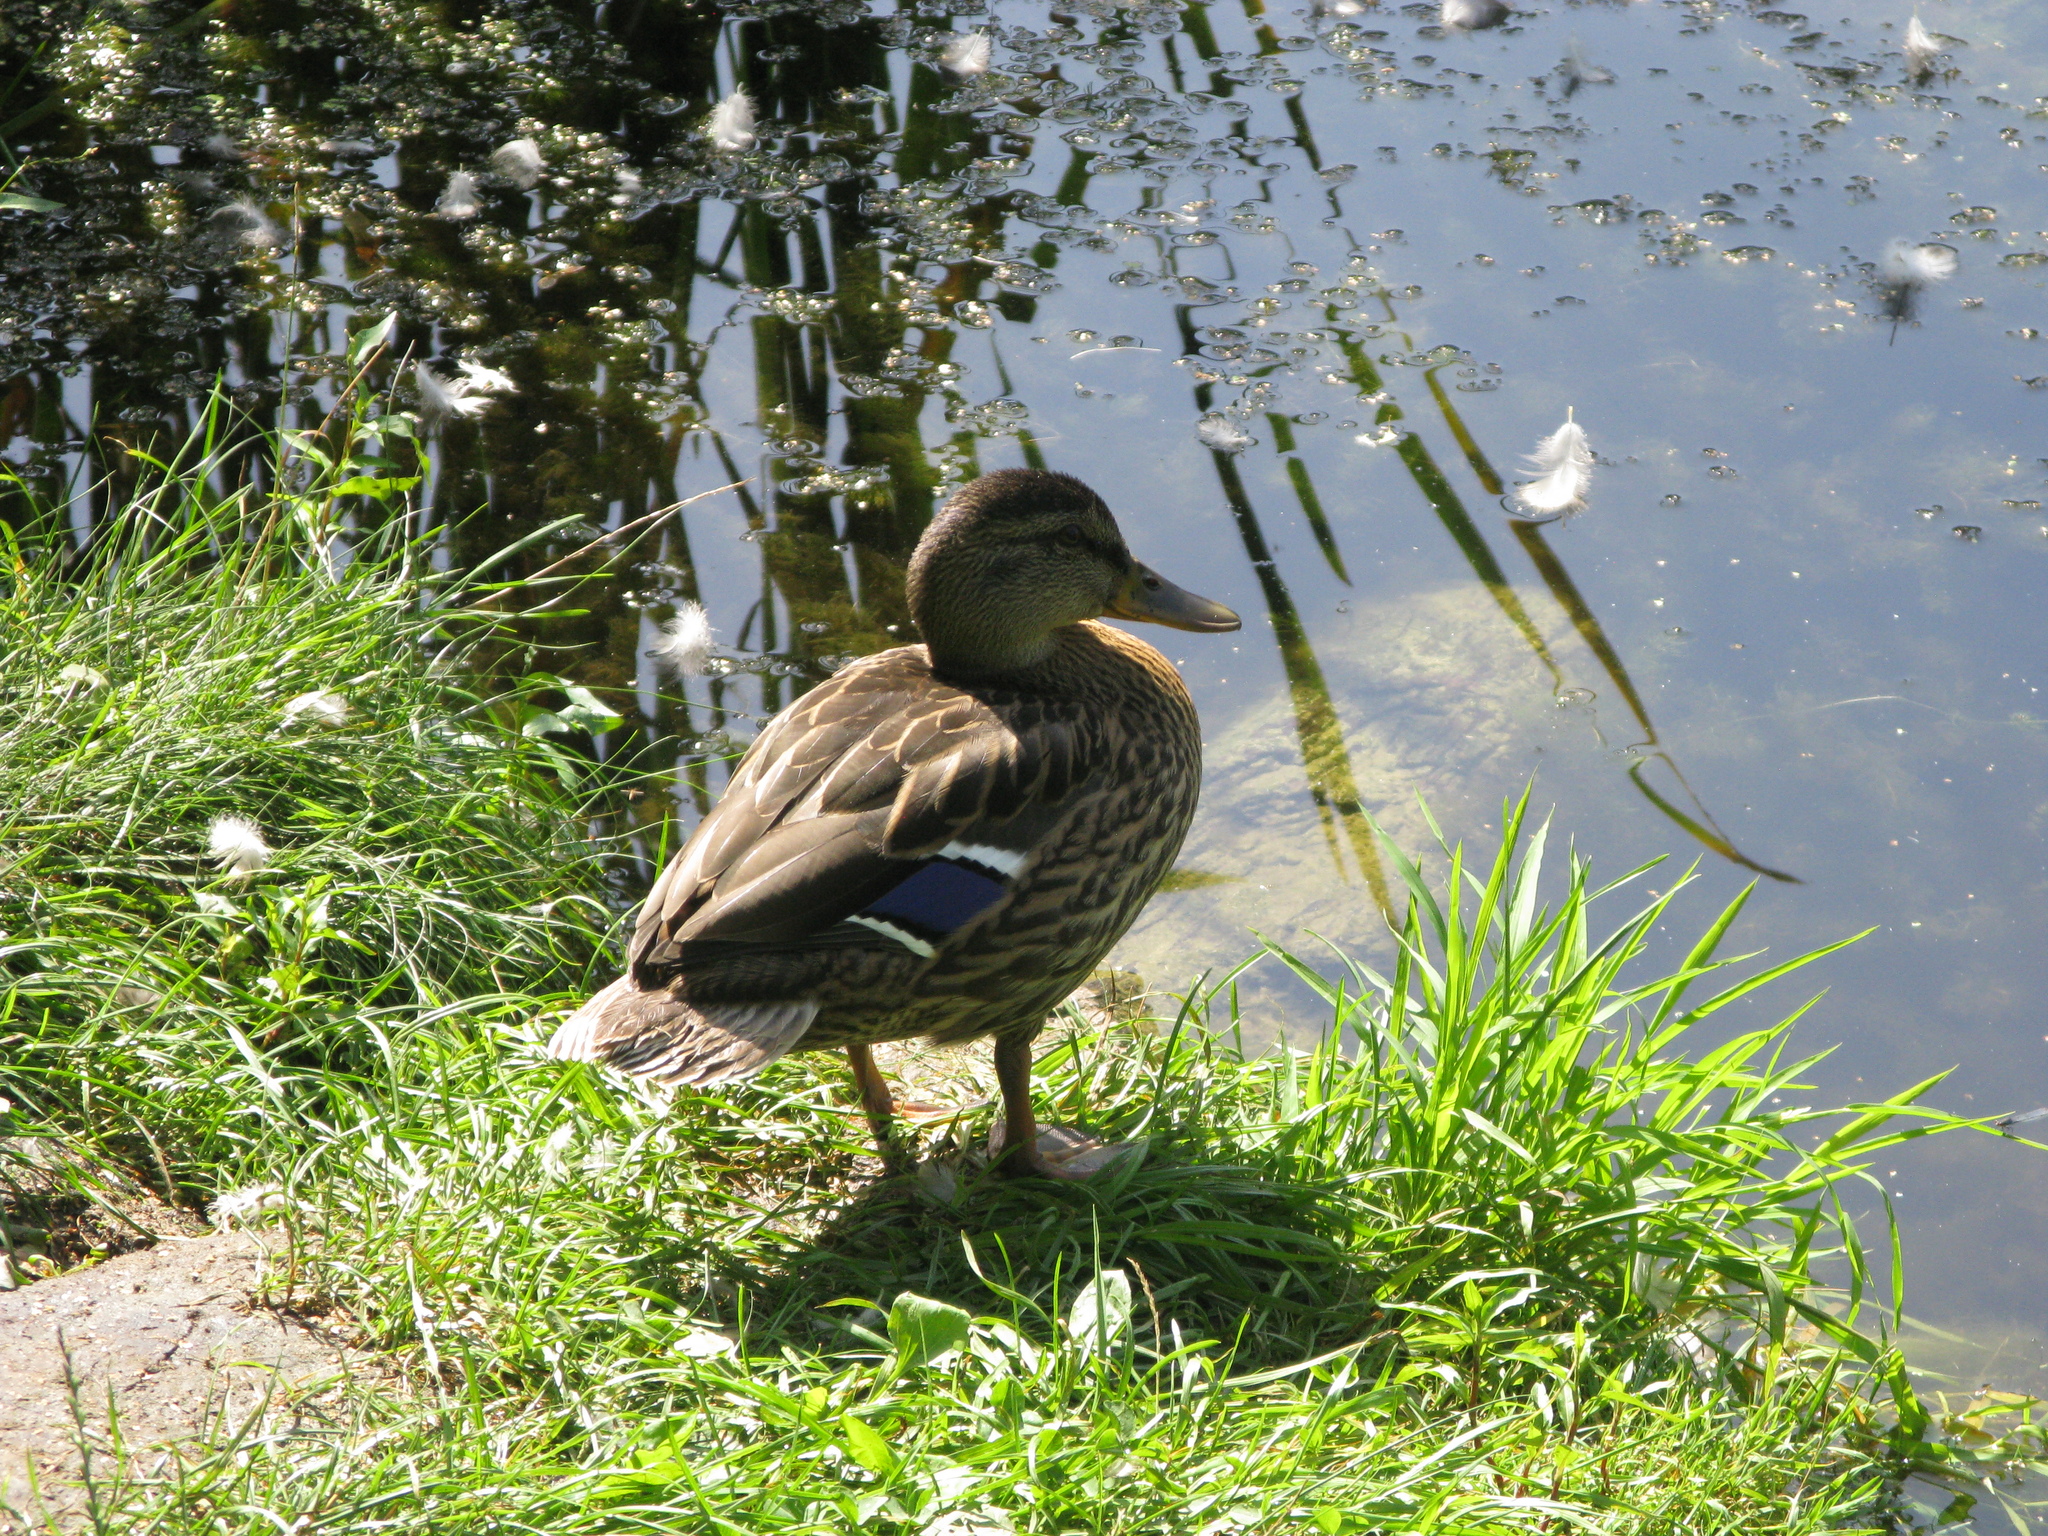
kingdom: Animalia
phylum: Chordata
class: Aves
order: Anseriformes
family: Anatidae
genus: Anas
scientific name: Anas platyrhynchos
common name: Mallard
